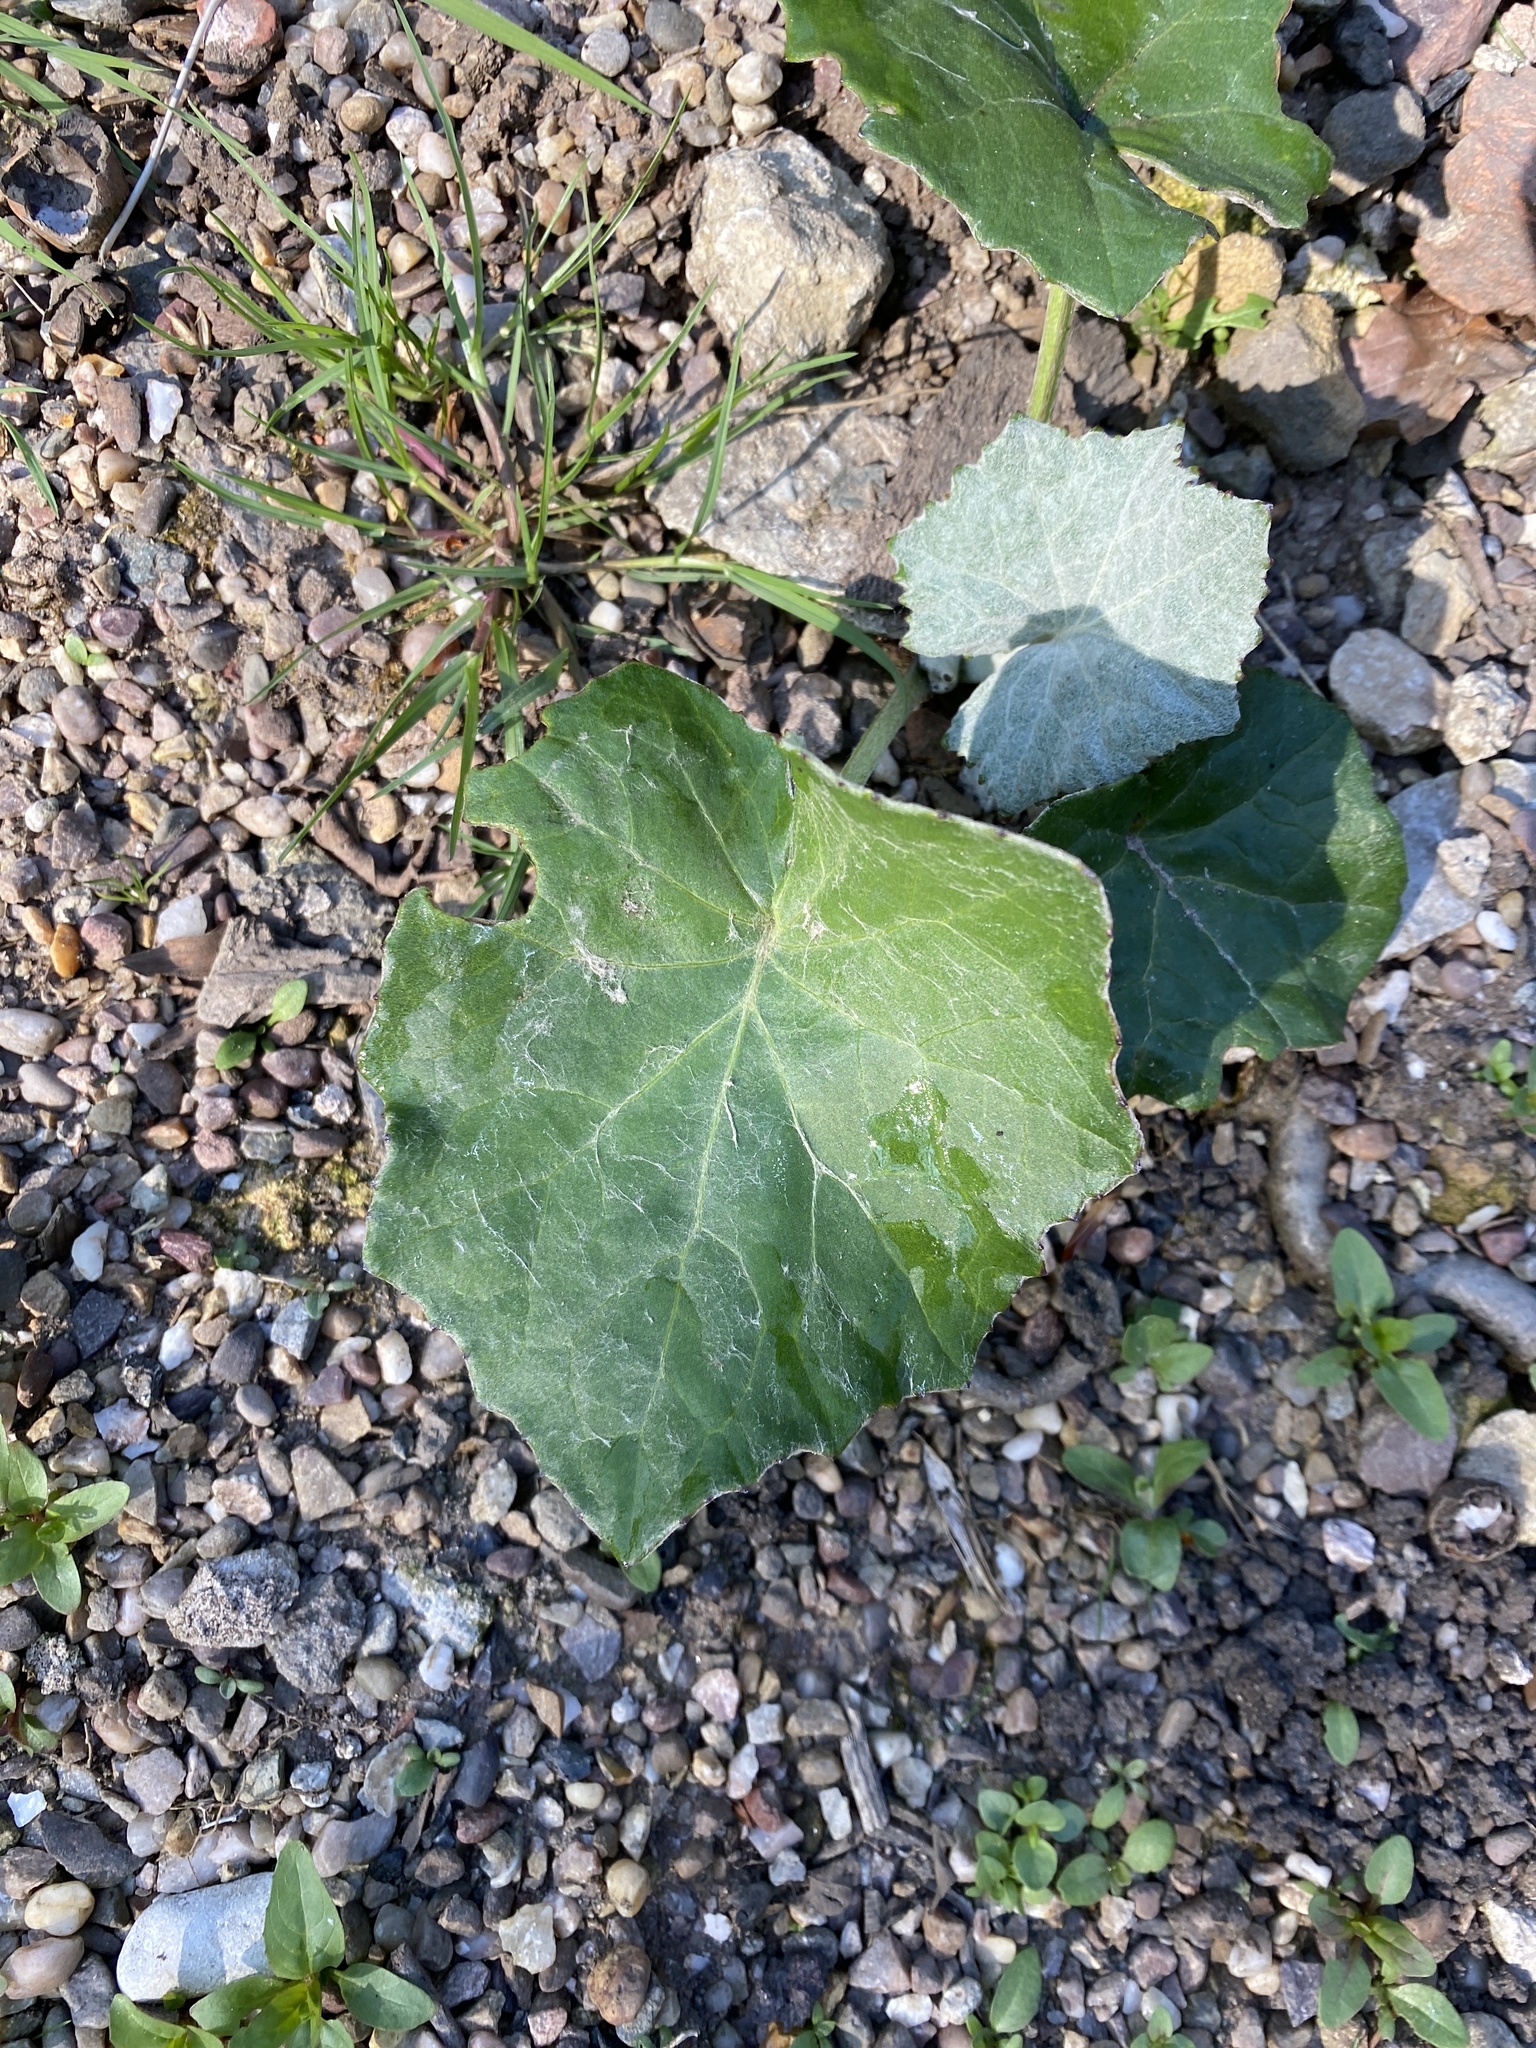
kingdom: Plantae
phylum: Tracheophyta
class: Magnoliopsida
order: Asterales
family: Asteraceae
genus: Tussilago
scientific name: Tussilago farfara
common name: Coltsfoot
